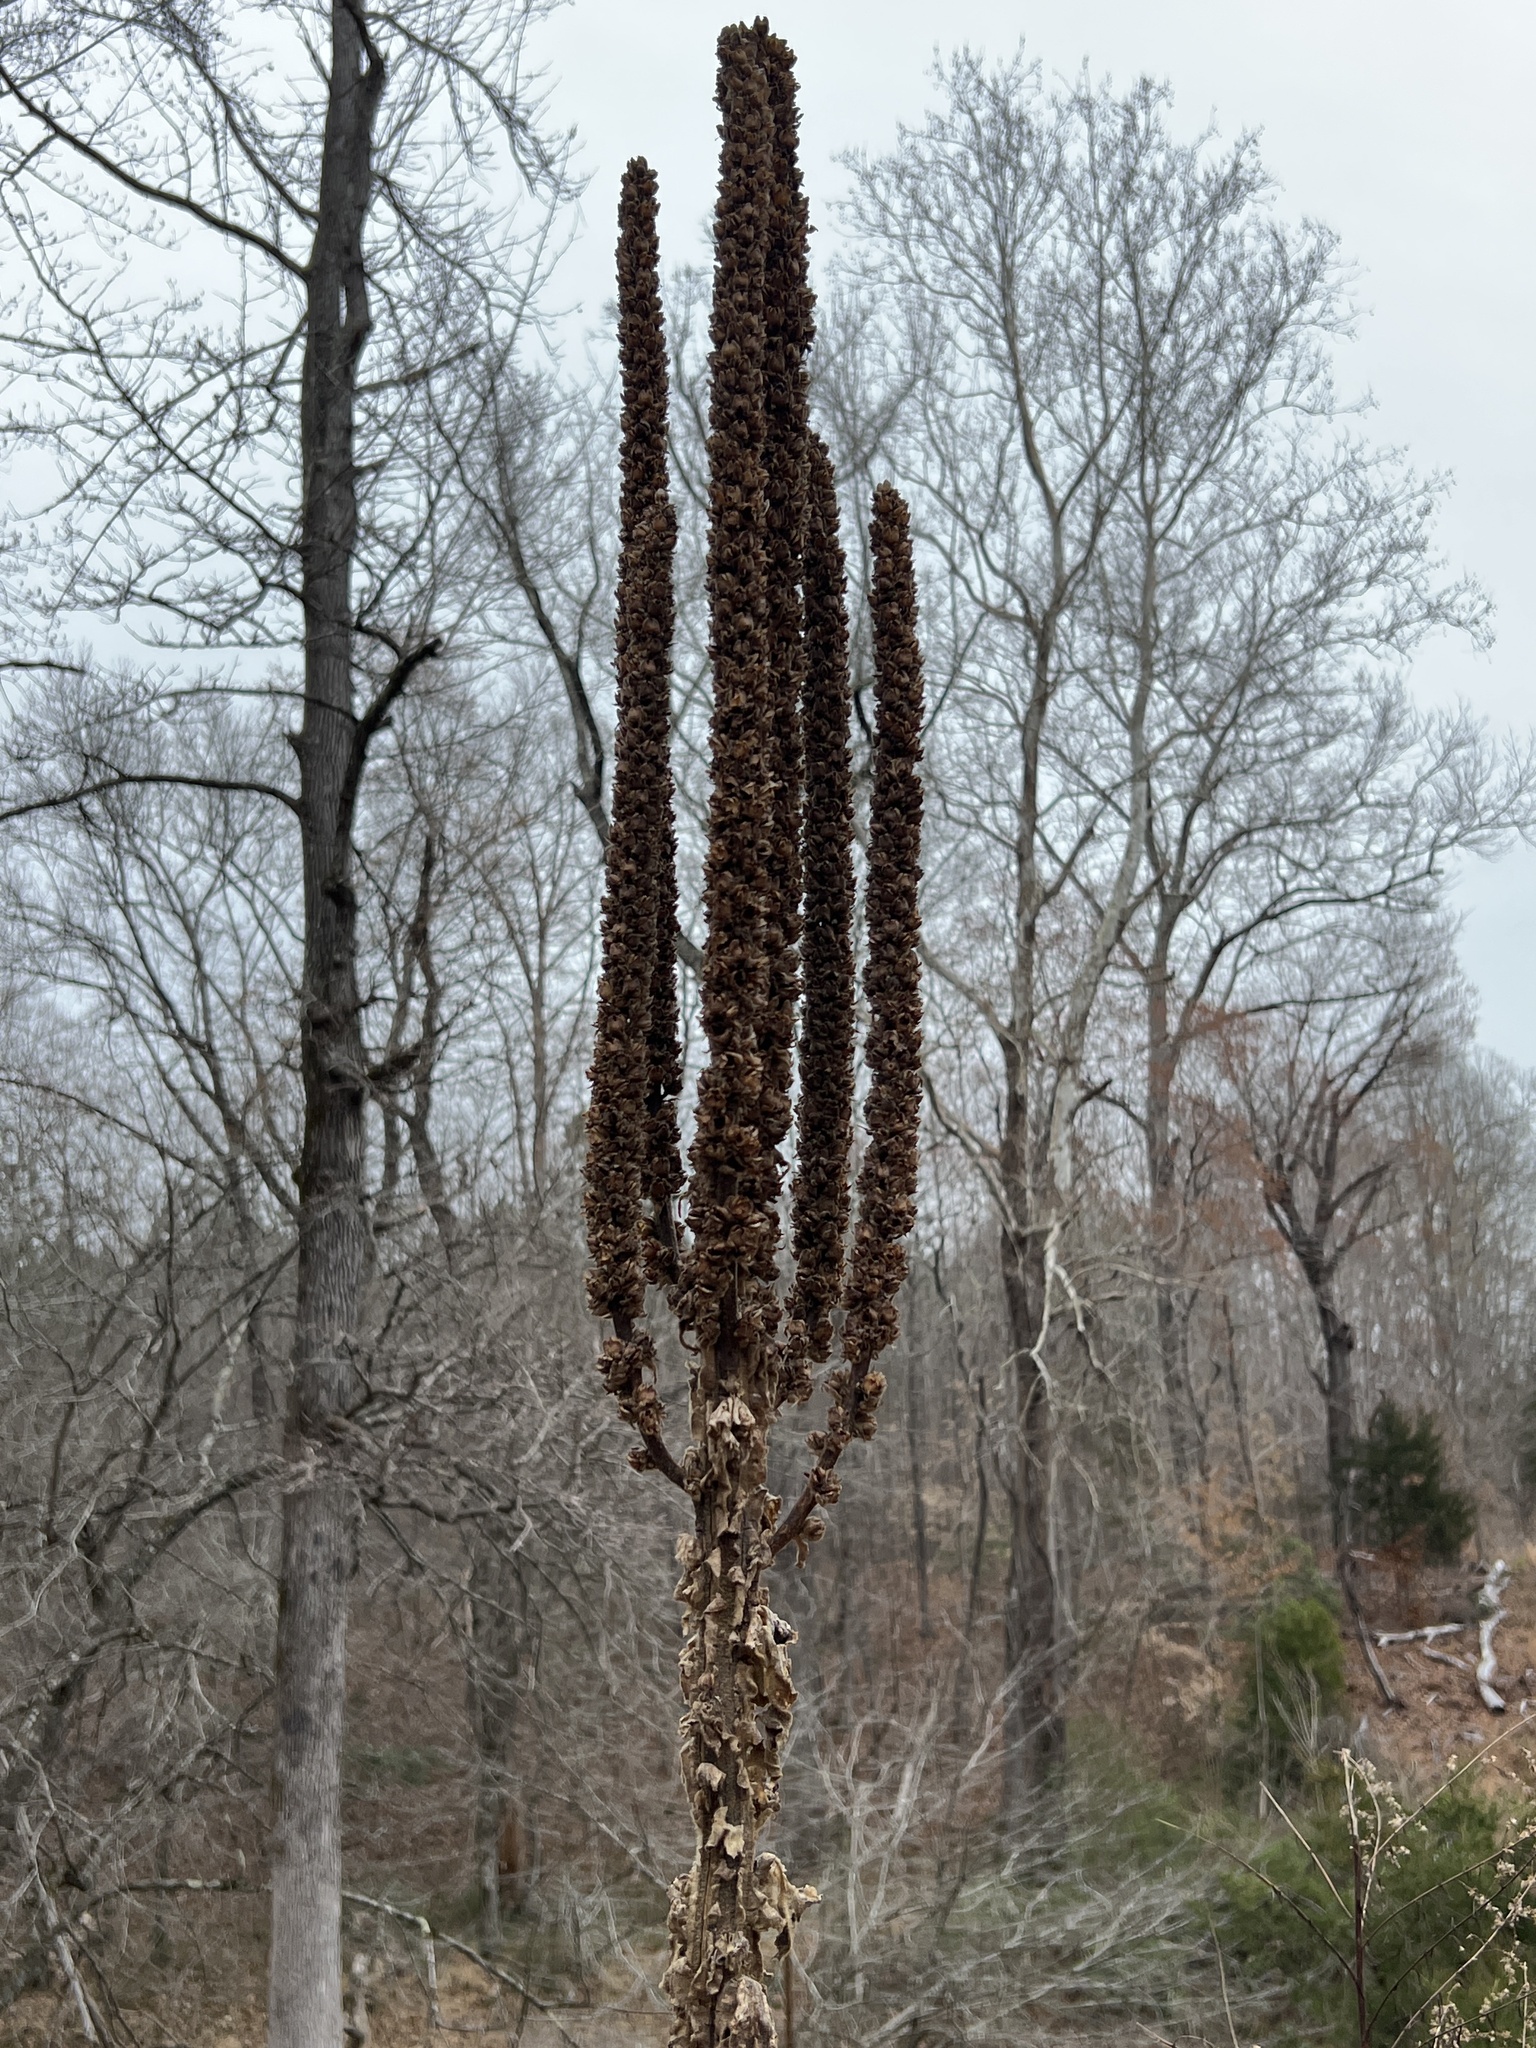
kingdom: Plantae
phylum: Tracheophyta
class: Magnoliopsida
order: Lamiales
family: Scrophulariaceae
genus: Verbascum
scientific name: Verbascum thapsus
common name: Common mullein
